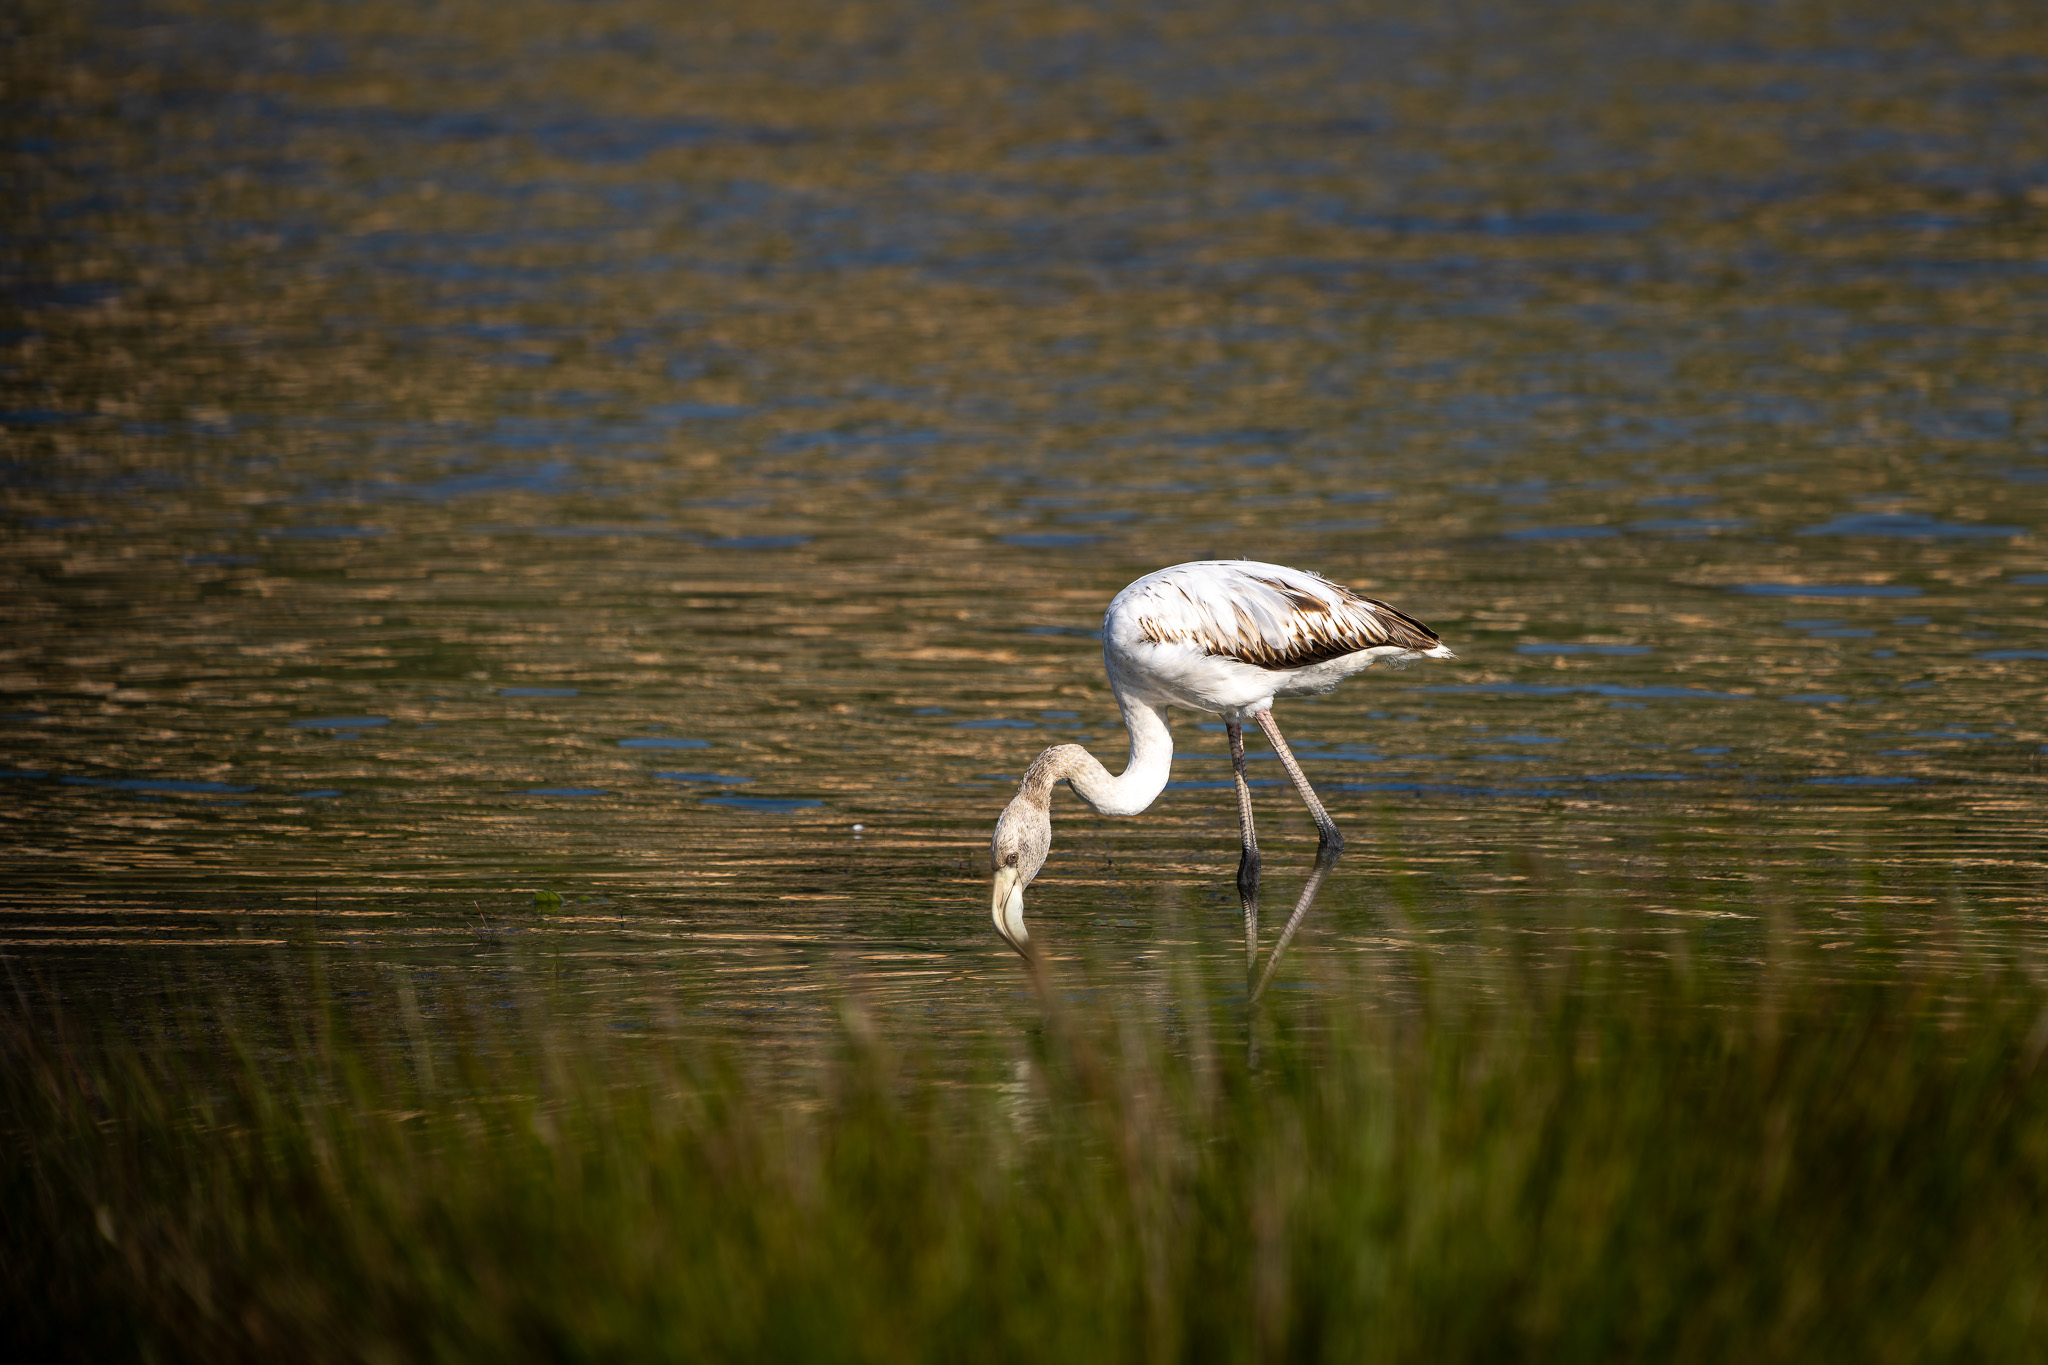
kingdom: Animalia
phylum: Chordata
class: Aves
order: Phoenicopteriformes
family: Phoenicopteridae
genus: Phoenicopterus
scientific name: Phoenicopterus roseus
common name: Greater flamingo
